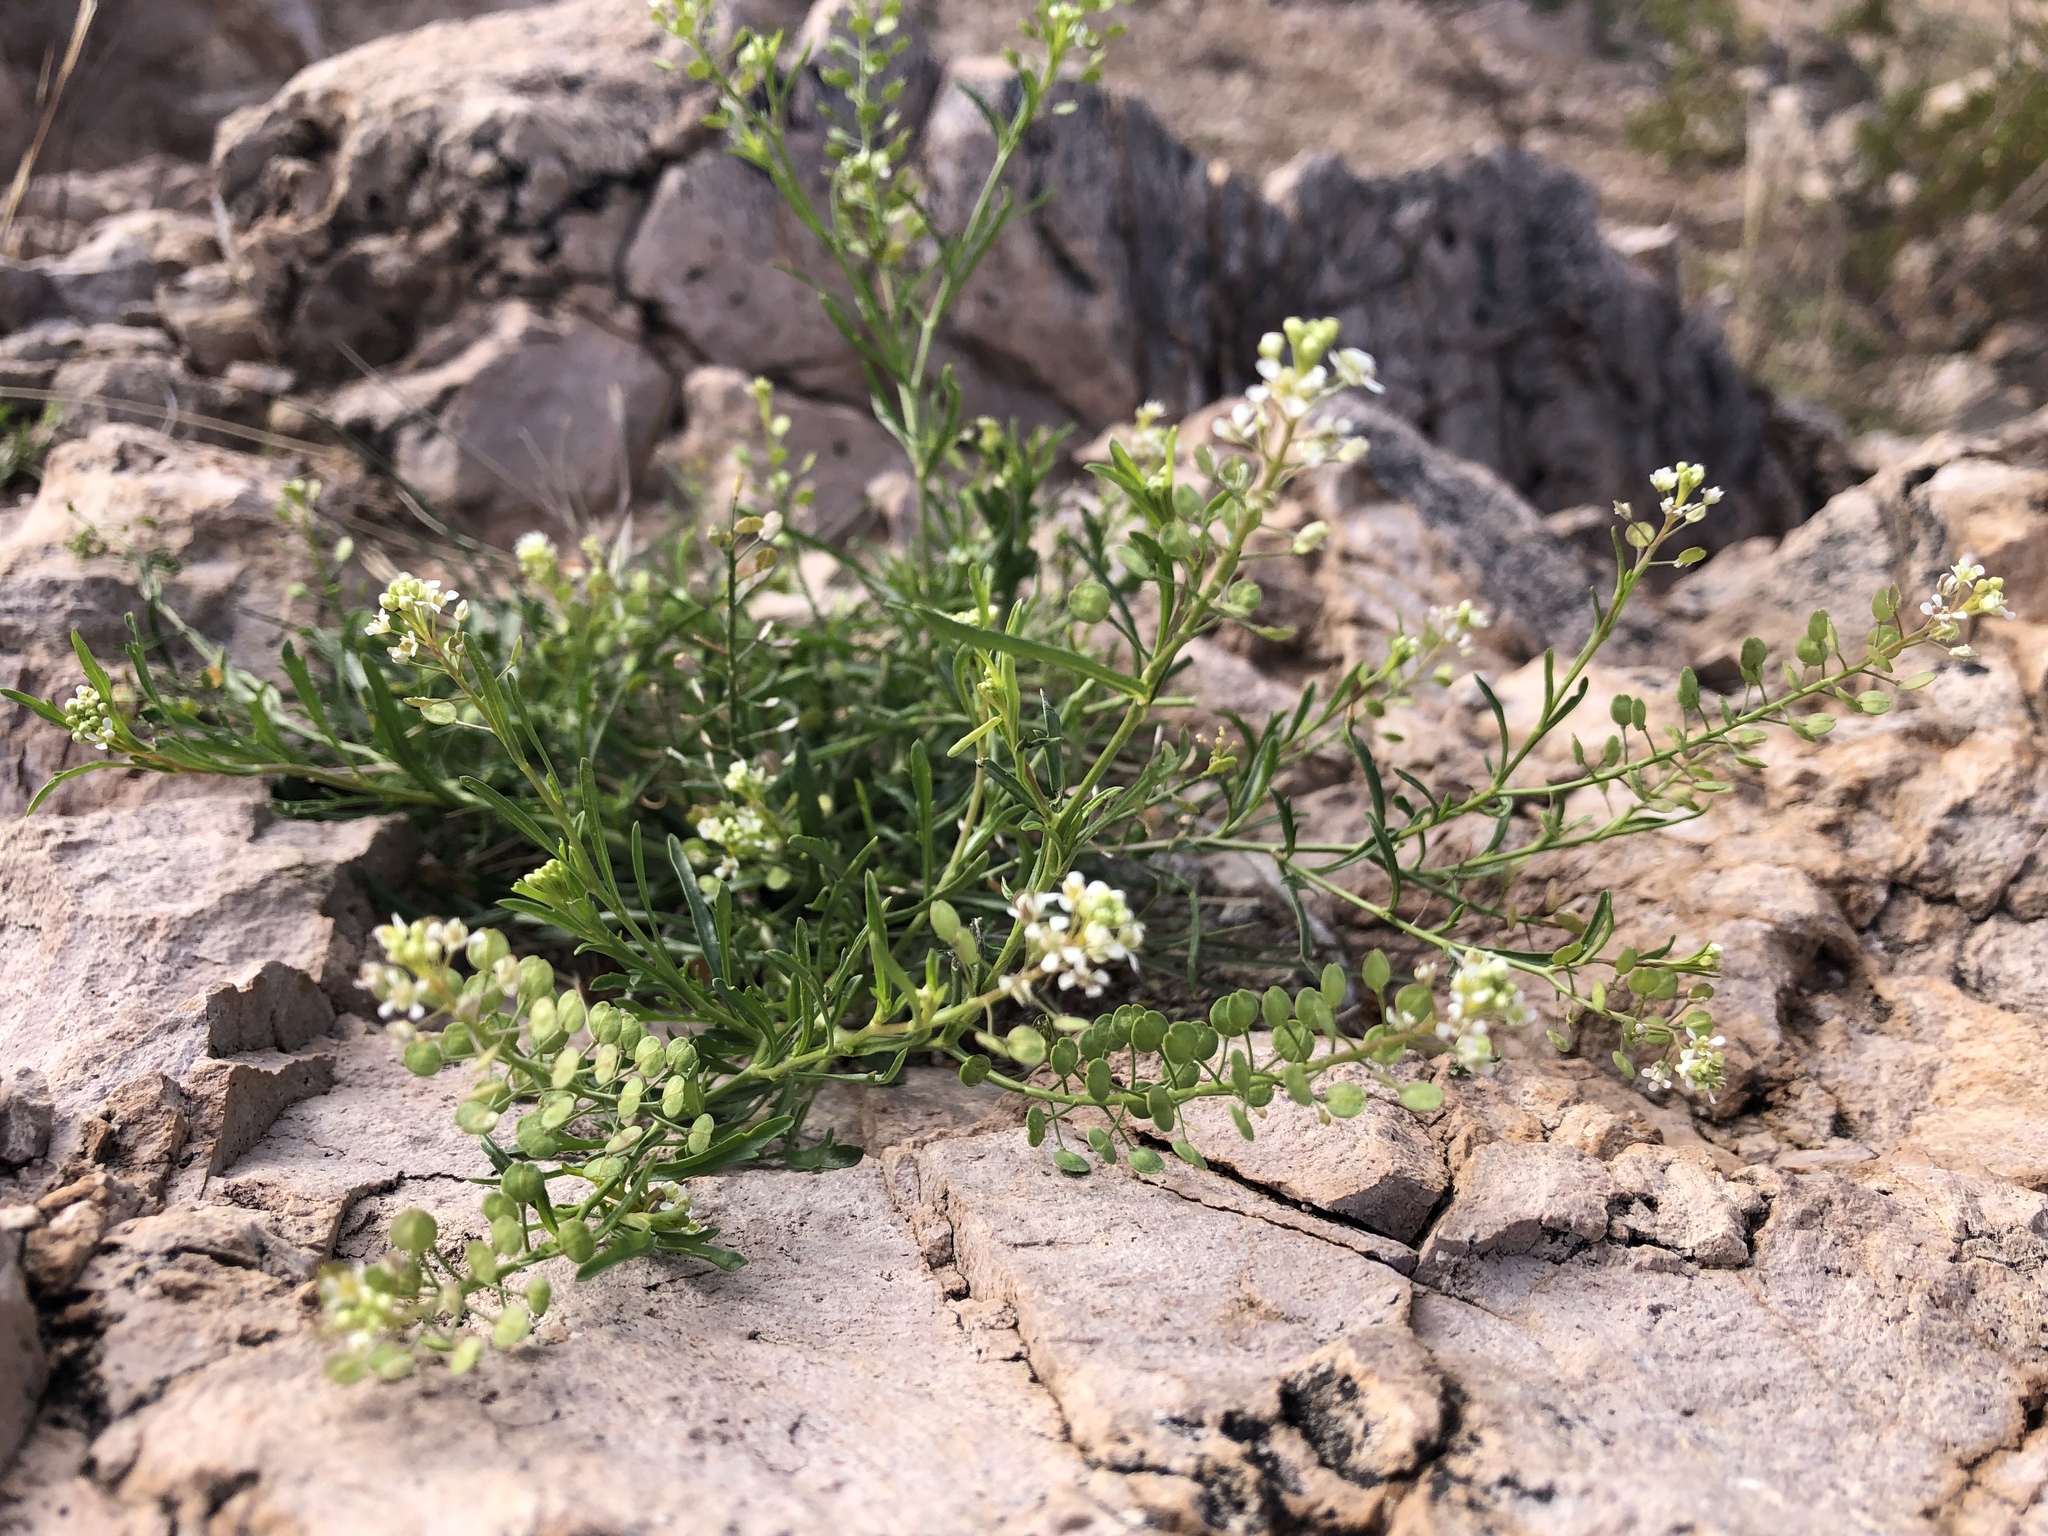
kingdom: Plantae
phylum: Tracheophyta
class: Magnoliopsida
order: Brassicales
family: Brassicaceae
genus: Lepidium
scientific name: Lepidium virginicum
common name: Least pepperwort
